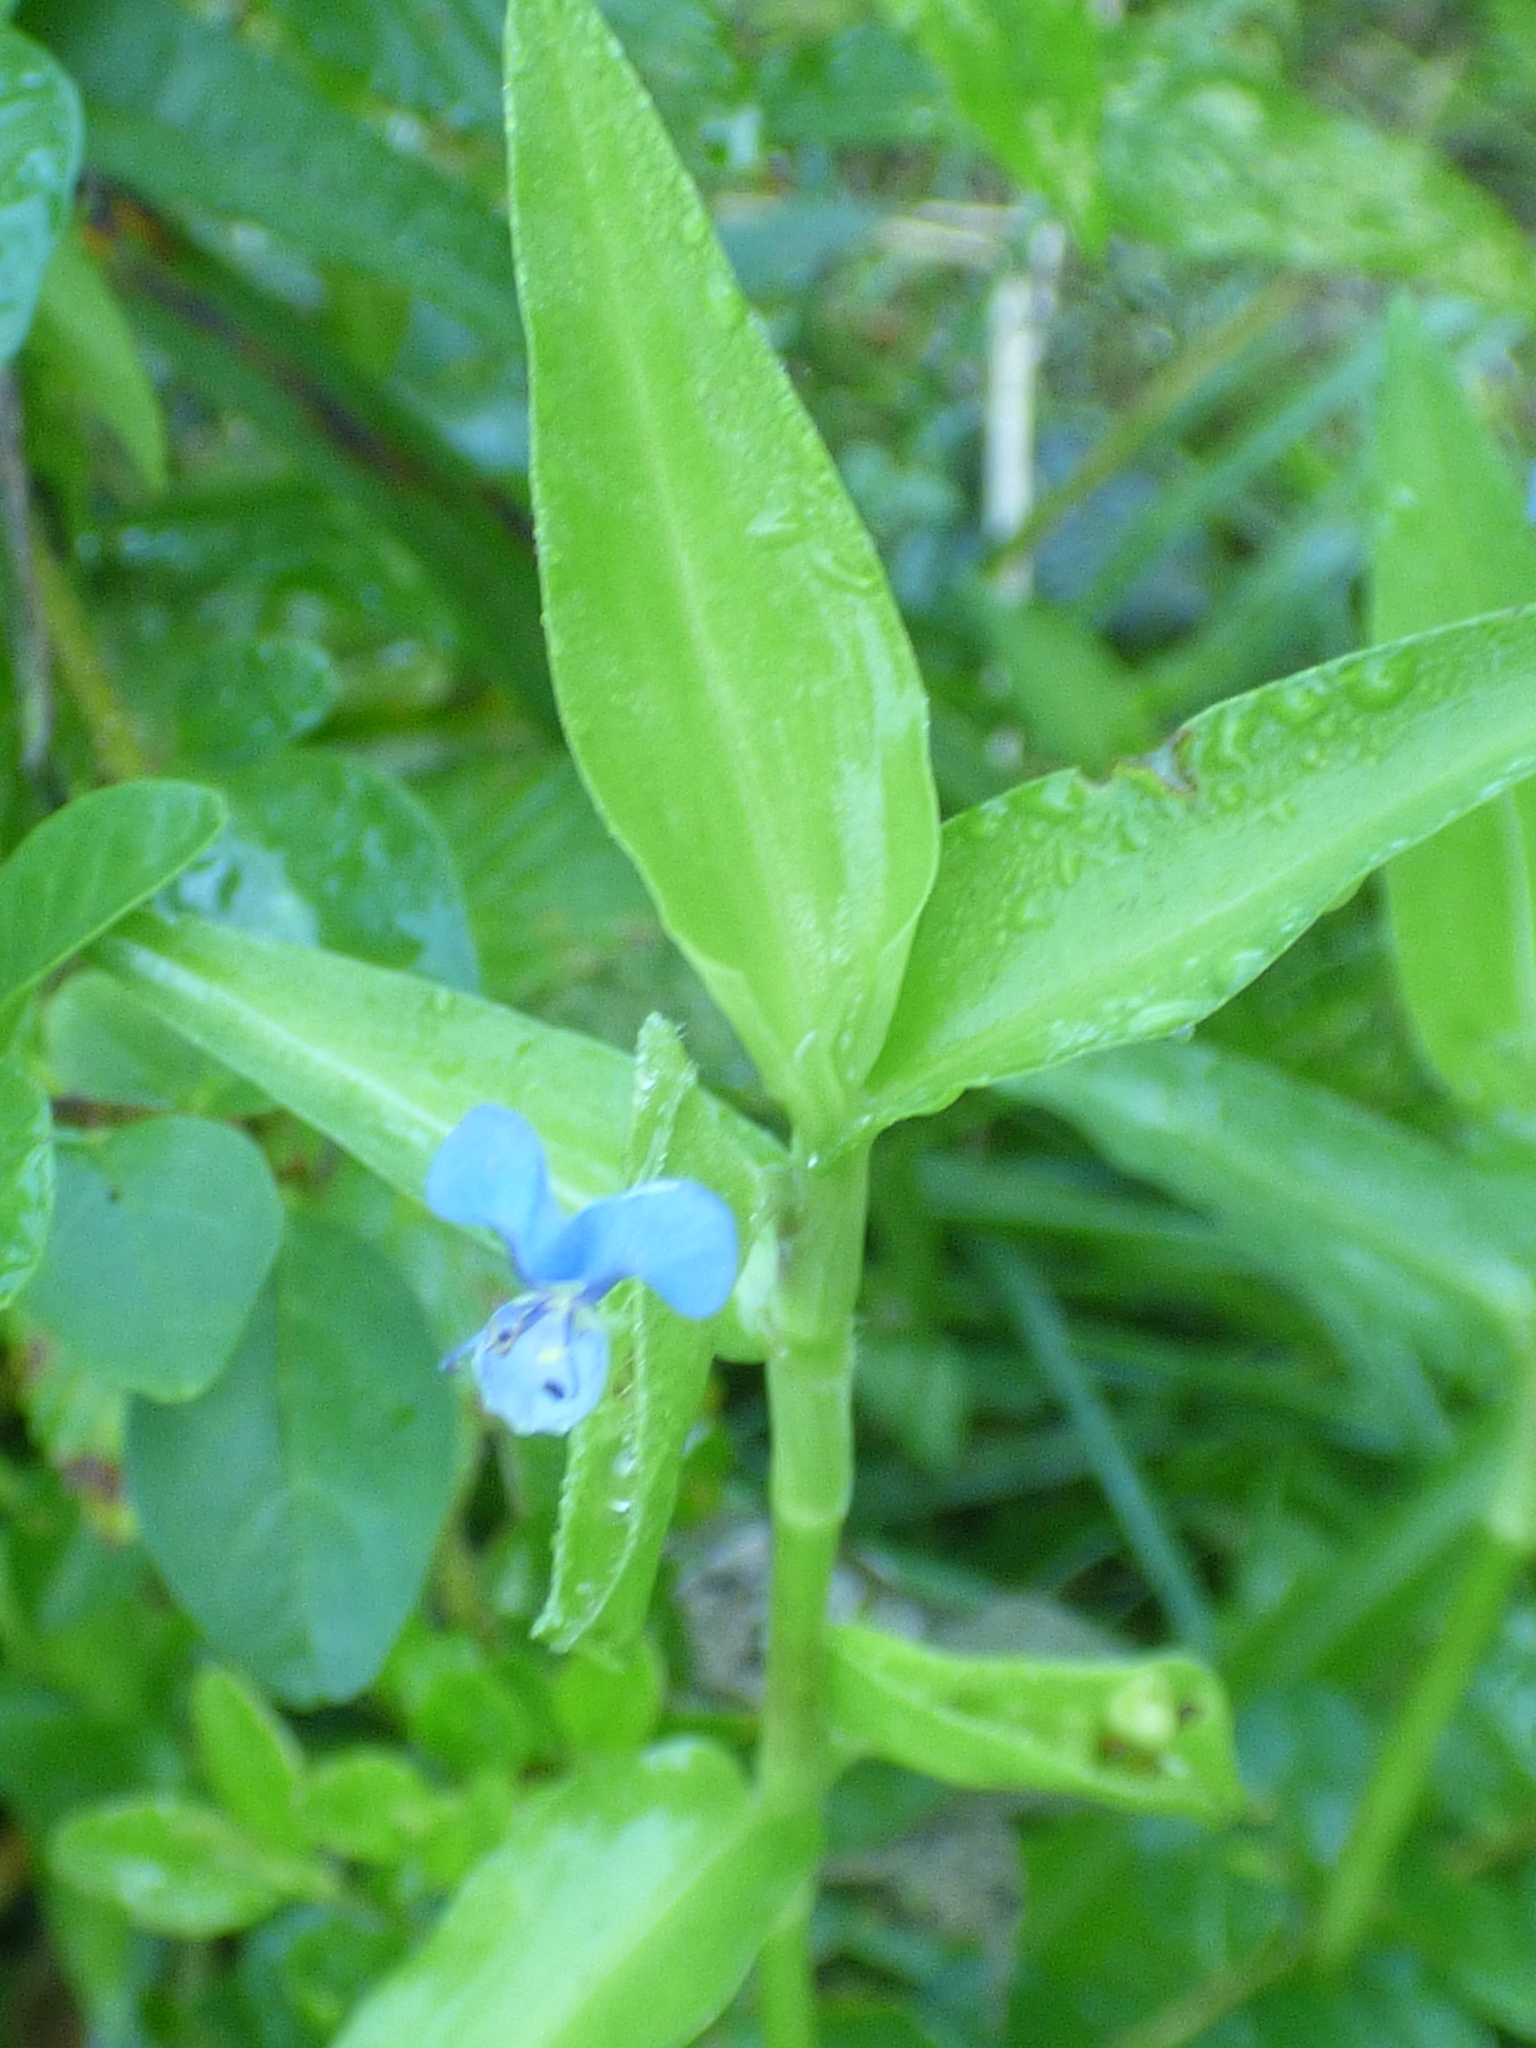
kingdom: Plantae
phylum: Tracheophyta
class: Liliopsida
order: Commelinales
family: Commelinaceae
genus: Commelina
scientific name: Commelina diffusa
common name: Climbing dayflower
